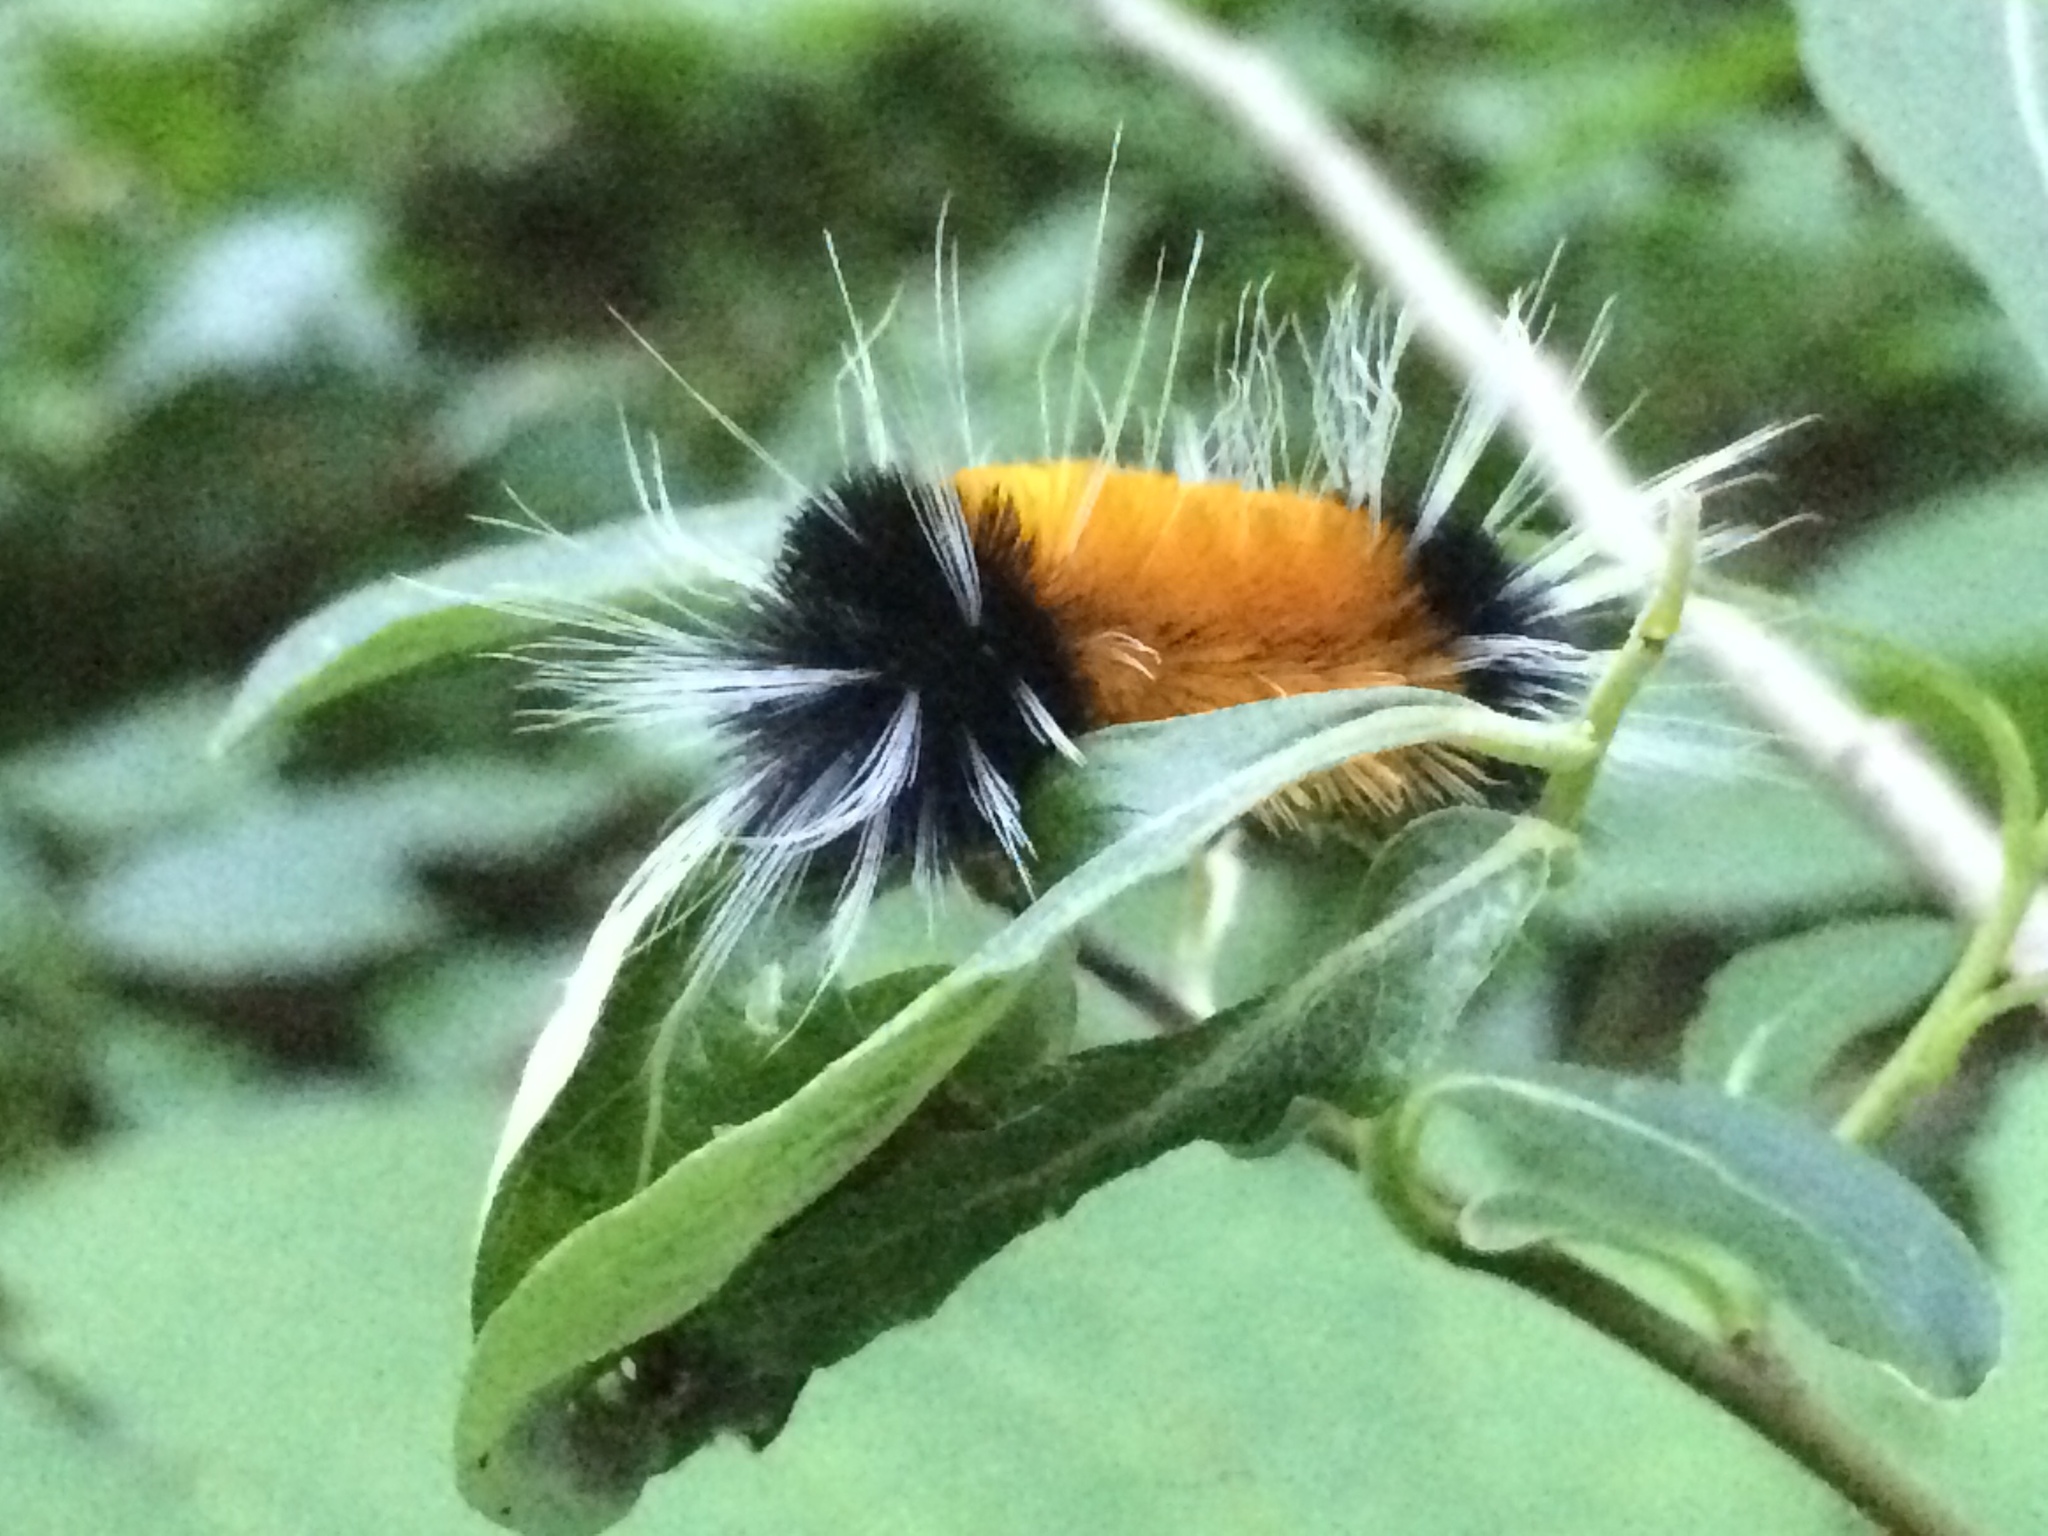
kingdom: Animalia
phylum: Arthropoda
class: Insecta
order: Lepidoptera
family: Erebidae
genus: Lophocampa
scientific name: Lophocampa maculata
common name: Spotted tussock moth
